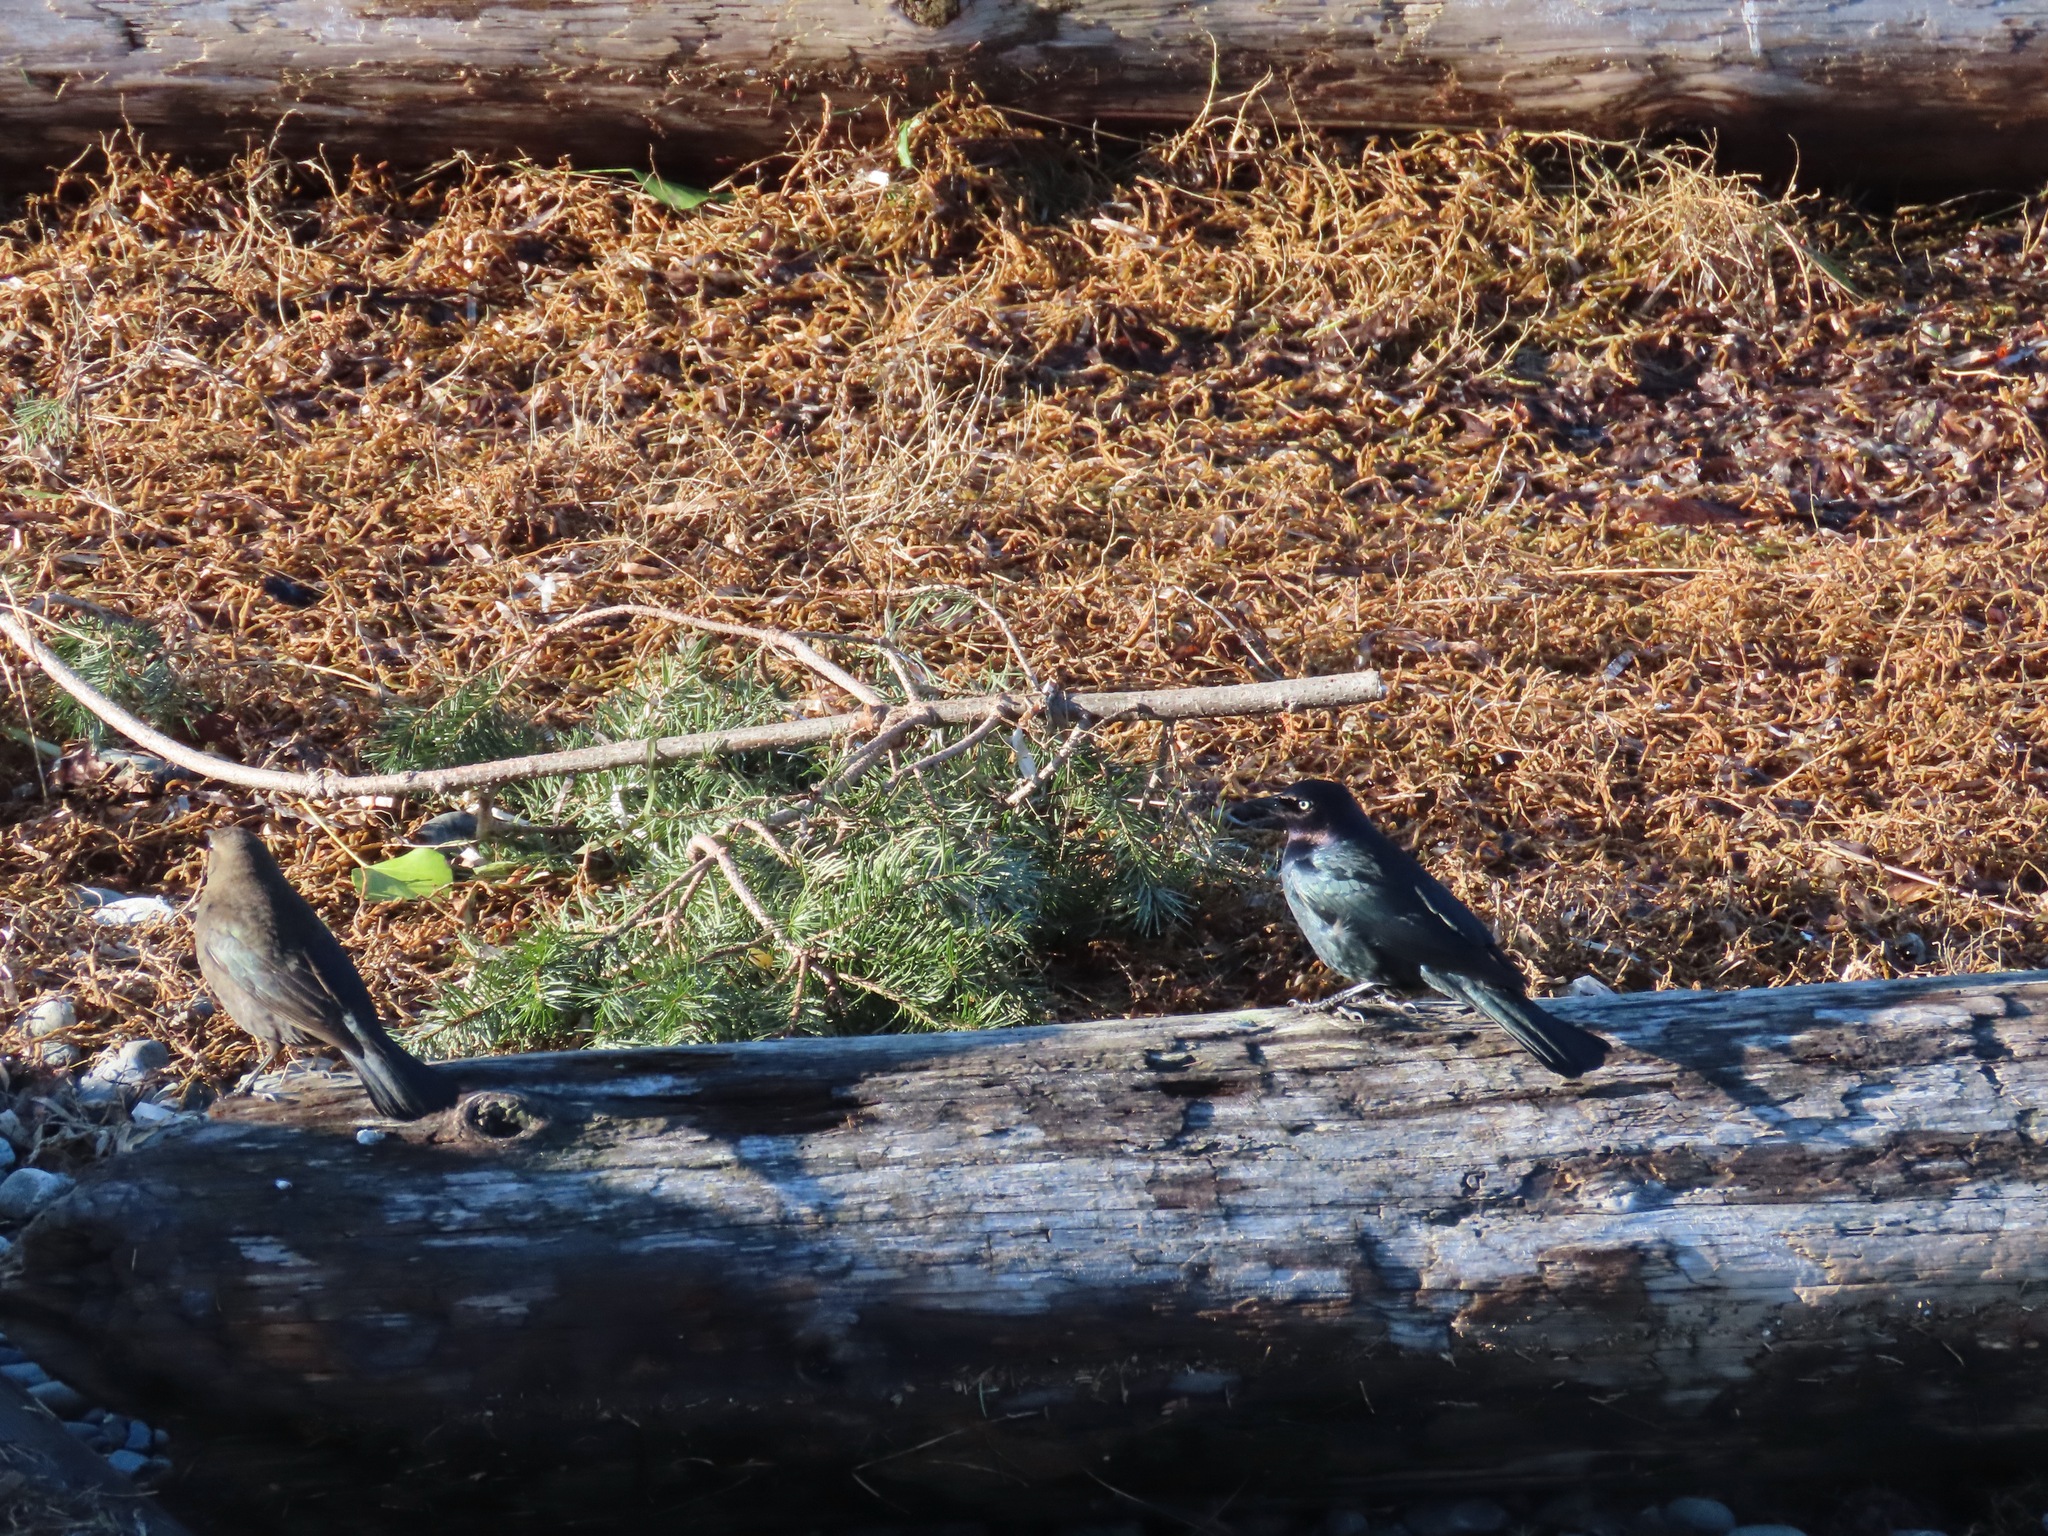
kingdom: Animalia
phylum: Chordata
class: Aves
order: Passeriformes
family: Icteridae
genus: Euphagus
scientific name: Euphagus cyanocephalus
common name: Brewer's blackbird
